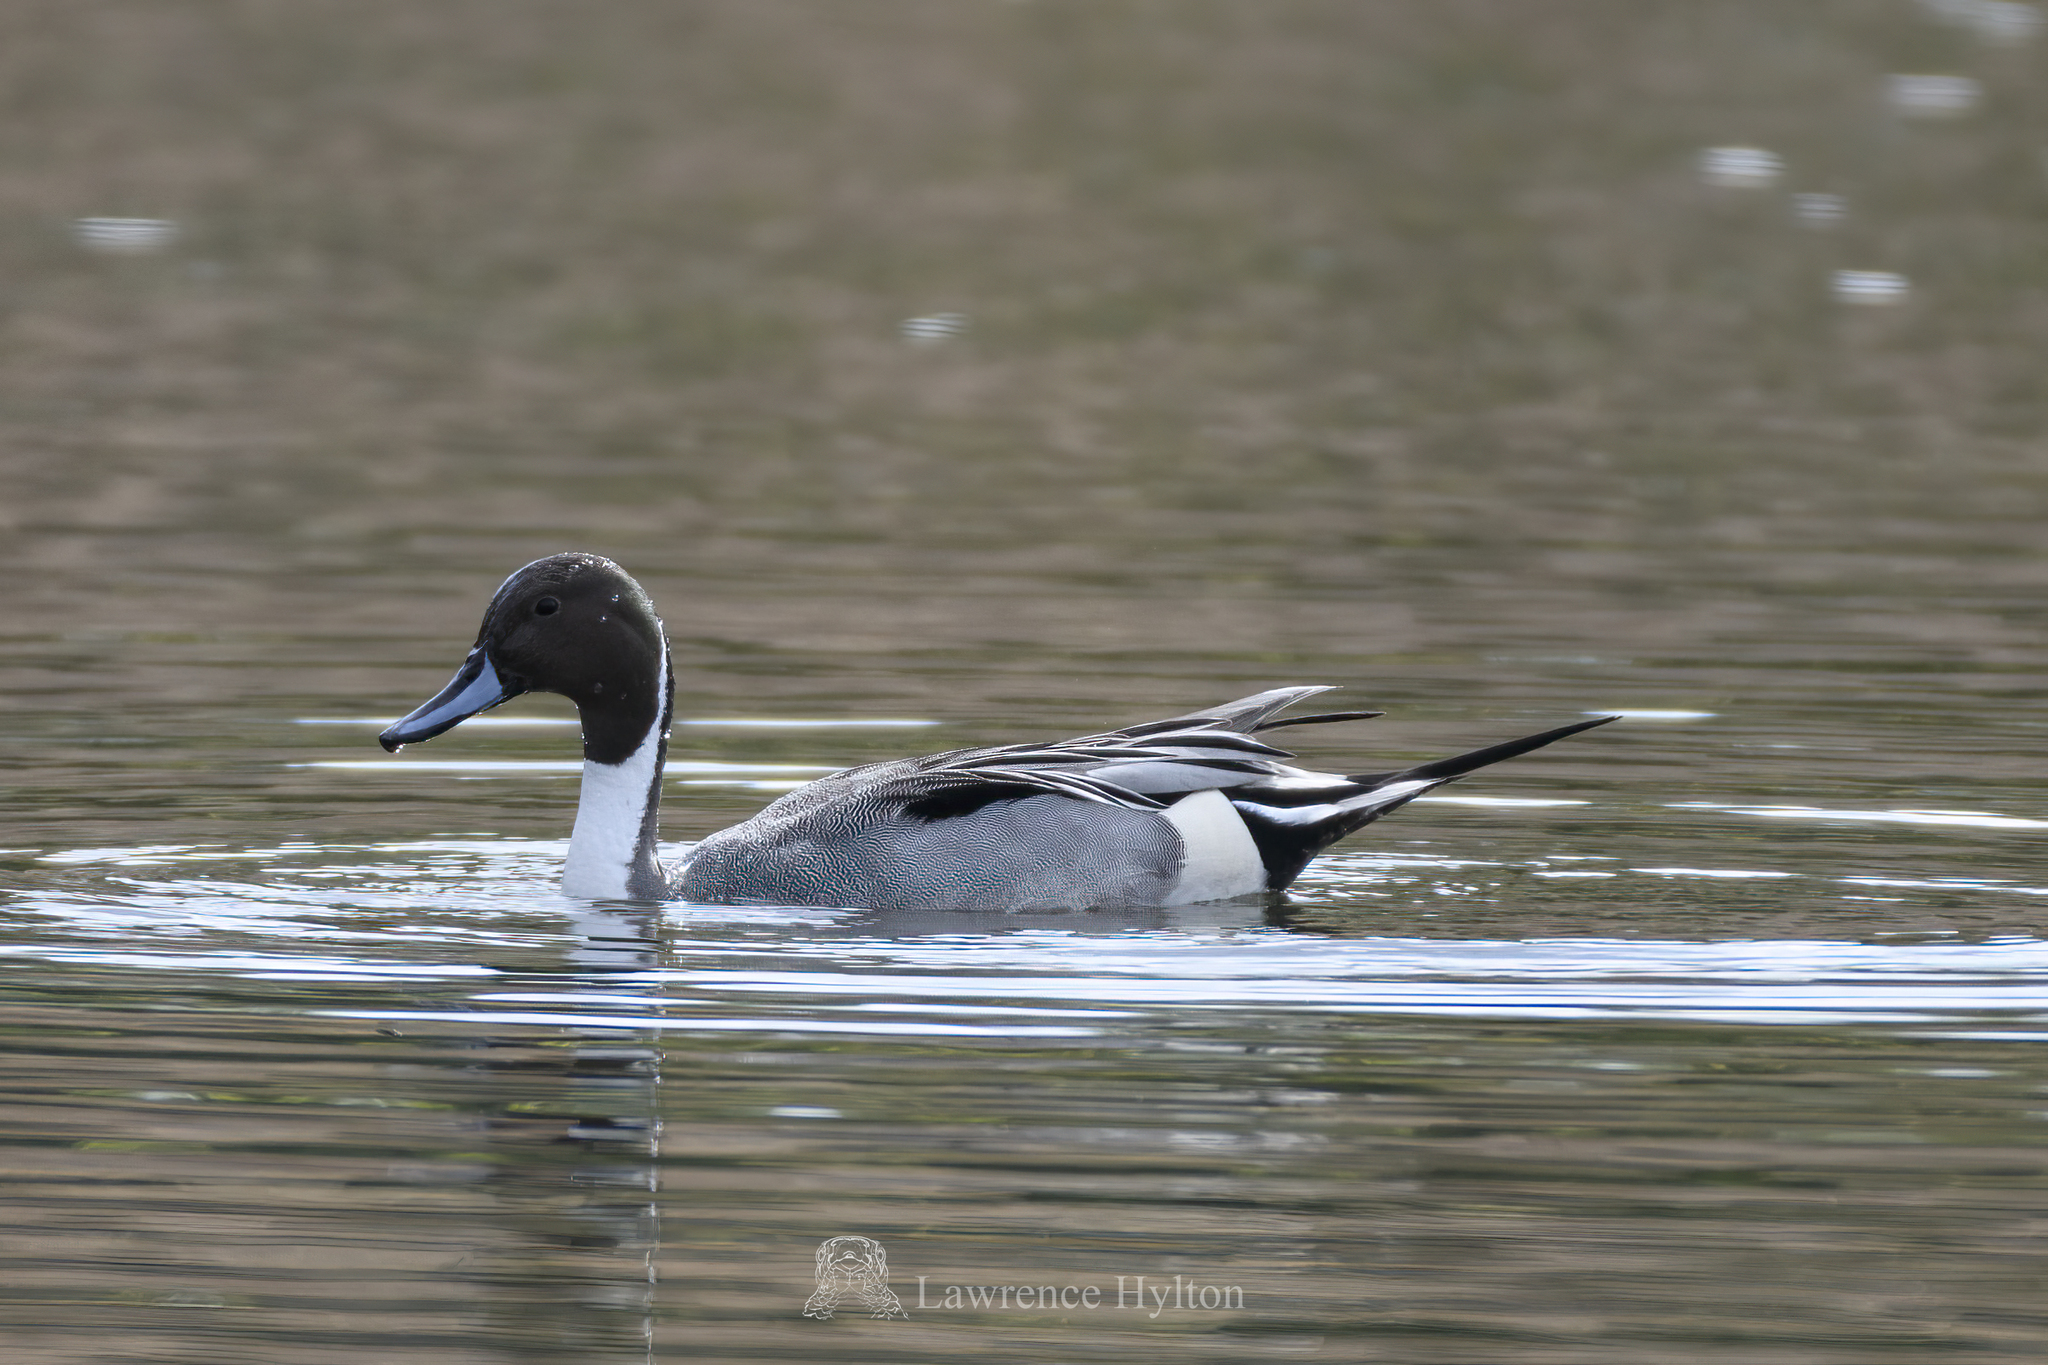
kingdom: Animalia
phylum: Chordata
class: Aves
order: Anseriformes
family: Anatidae
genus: Anas
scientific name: Anas acuta
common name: Northern pintail
